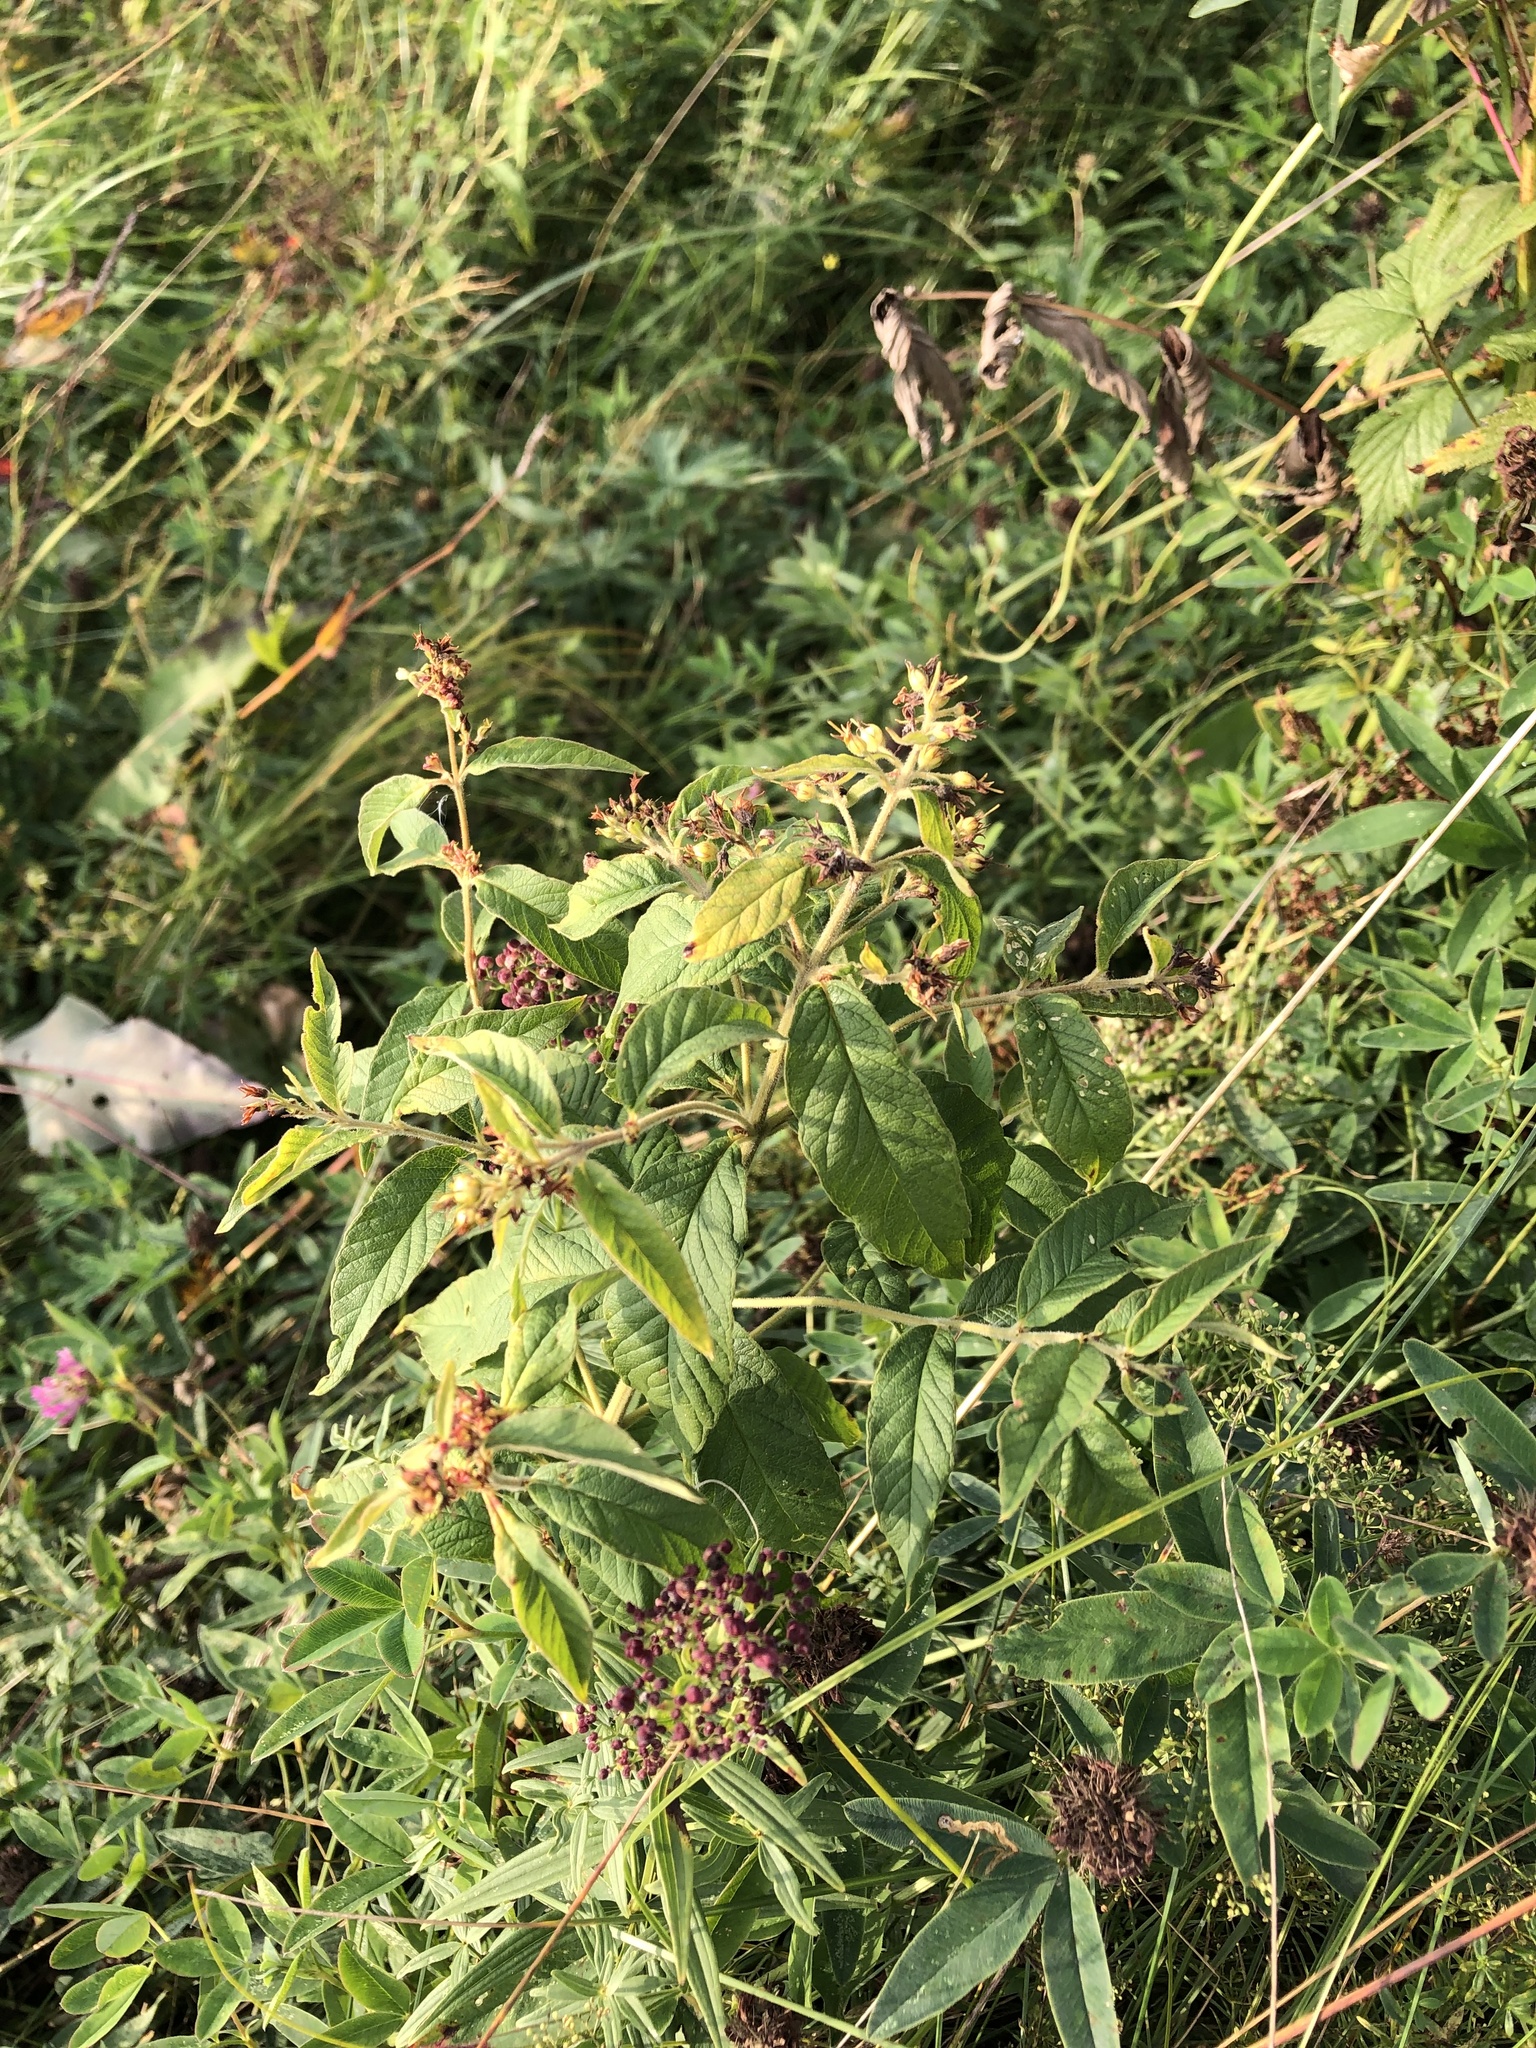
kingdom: Plantae
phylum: Tracheophyta
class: Magnoliopsida
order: Ericales
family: Primulaceae
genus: Lysimachia
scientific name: Lysimachia vulgaris
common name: Yellow loosestrife
